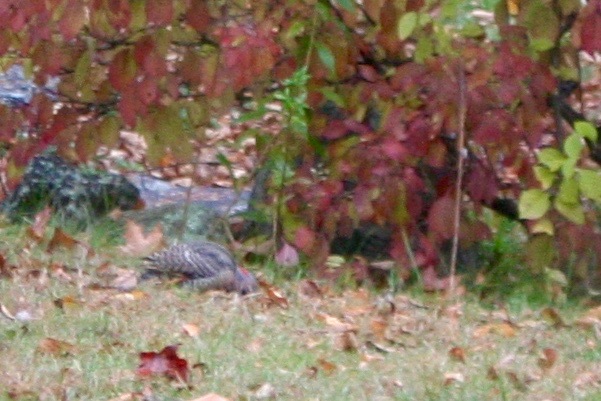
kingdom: Animalia
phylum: Chordata
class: Aves
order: Piciformes
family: Picidae
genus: Colaptes
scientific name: Colaptes auratus
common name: Northern flicker
